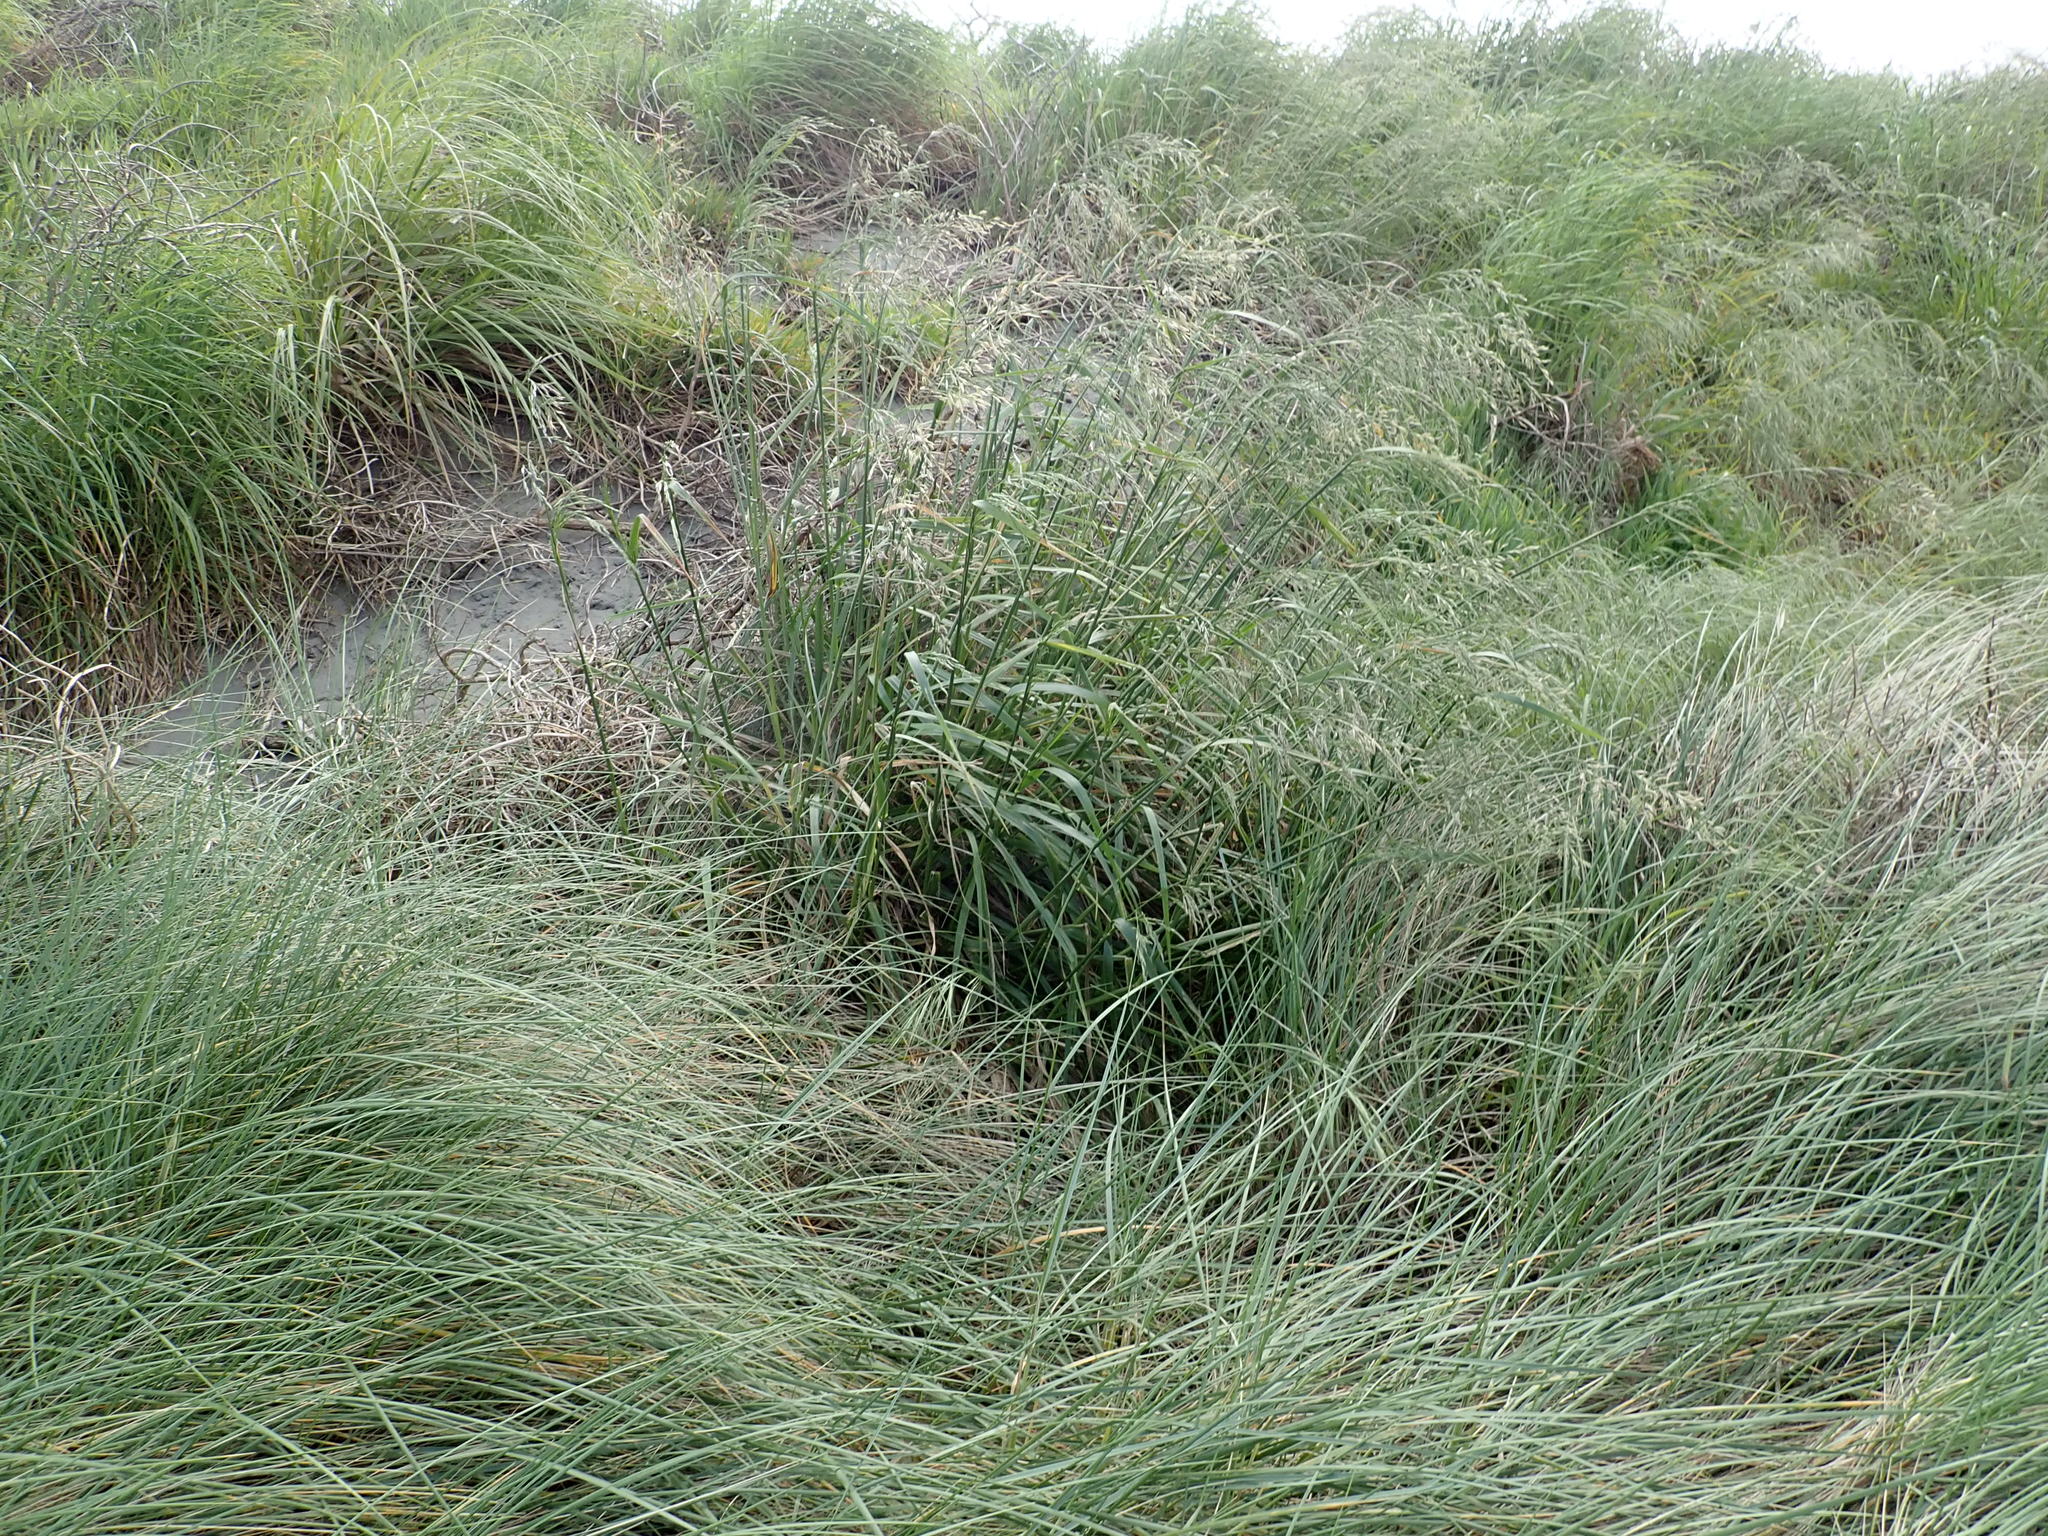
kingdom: Plantae
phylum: Tracheophyta
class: Liliopsida
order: Poales
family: Poaceae
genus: Lolium
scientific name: Lolium arundinaceum
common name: Reed fescue
